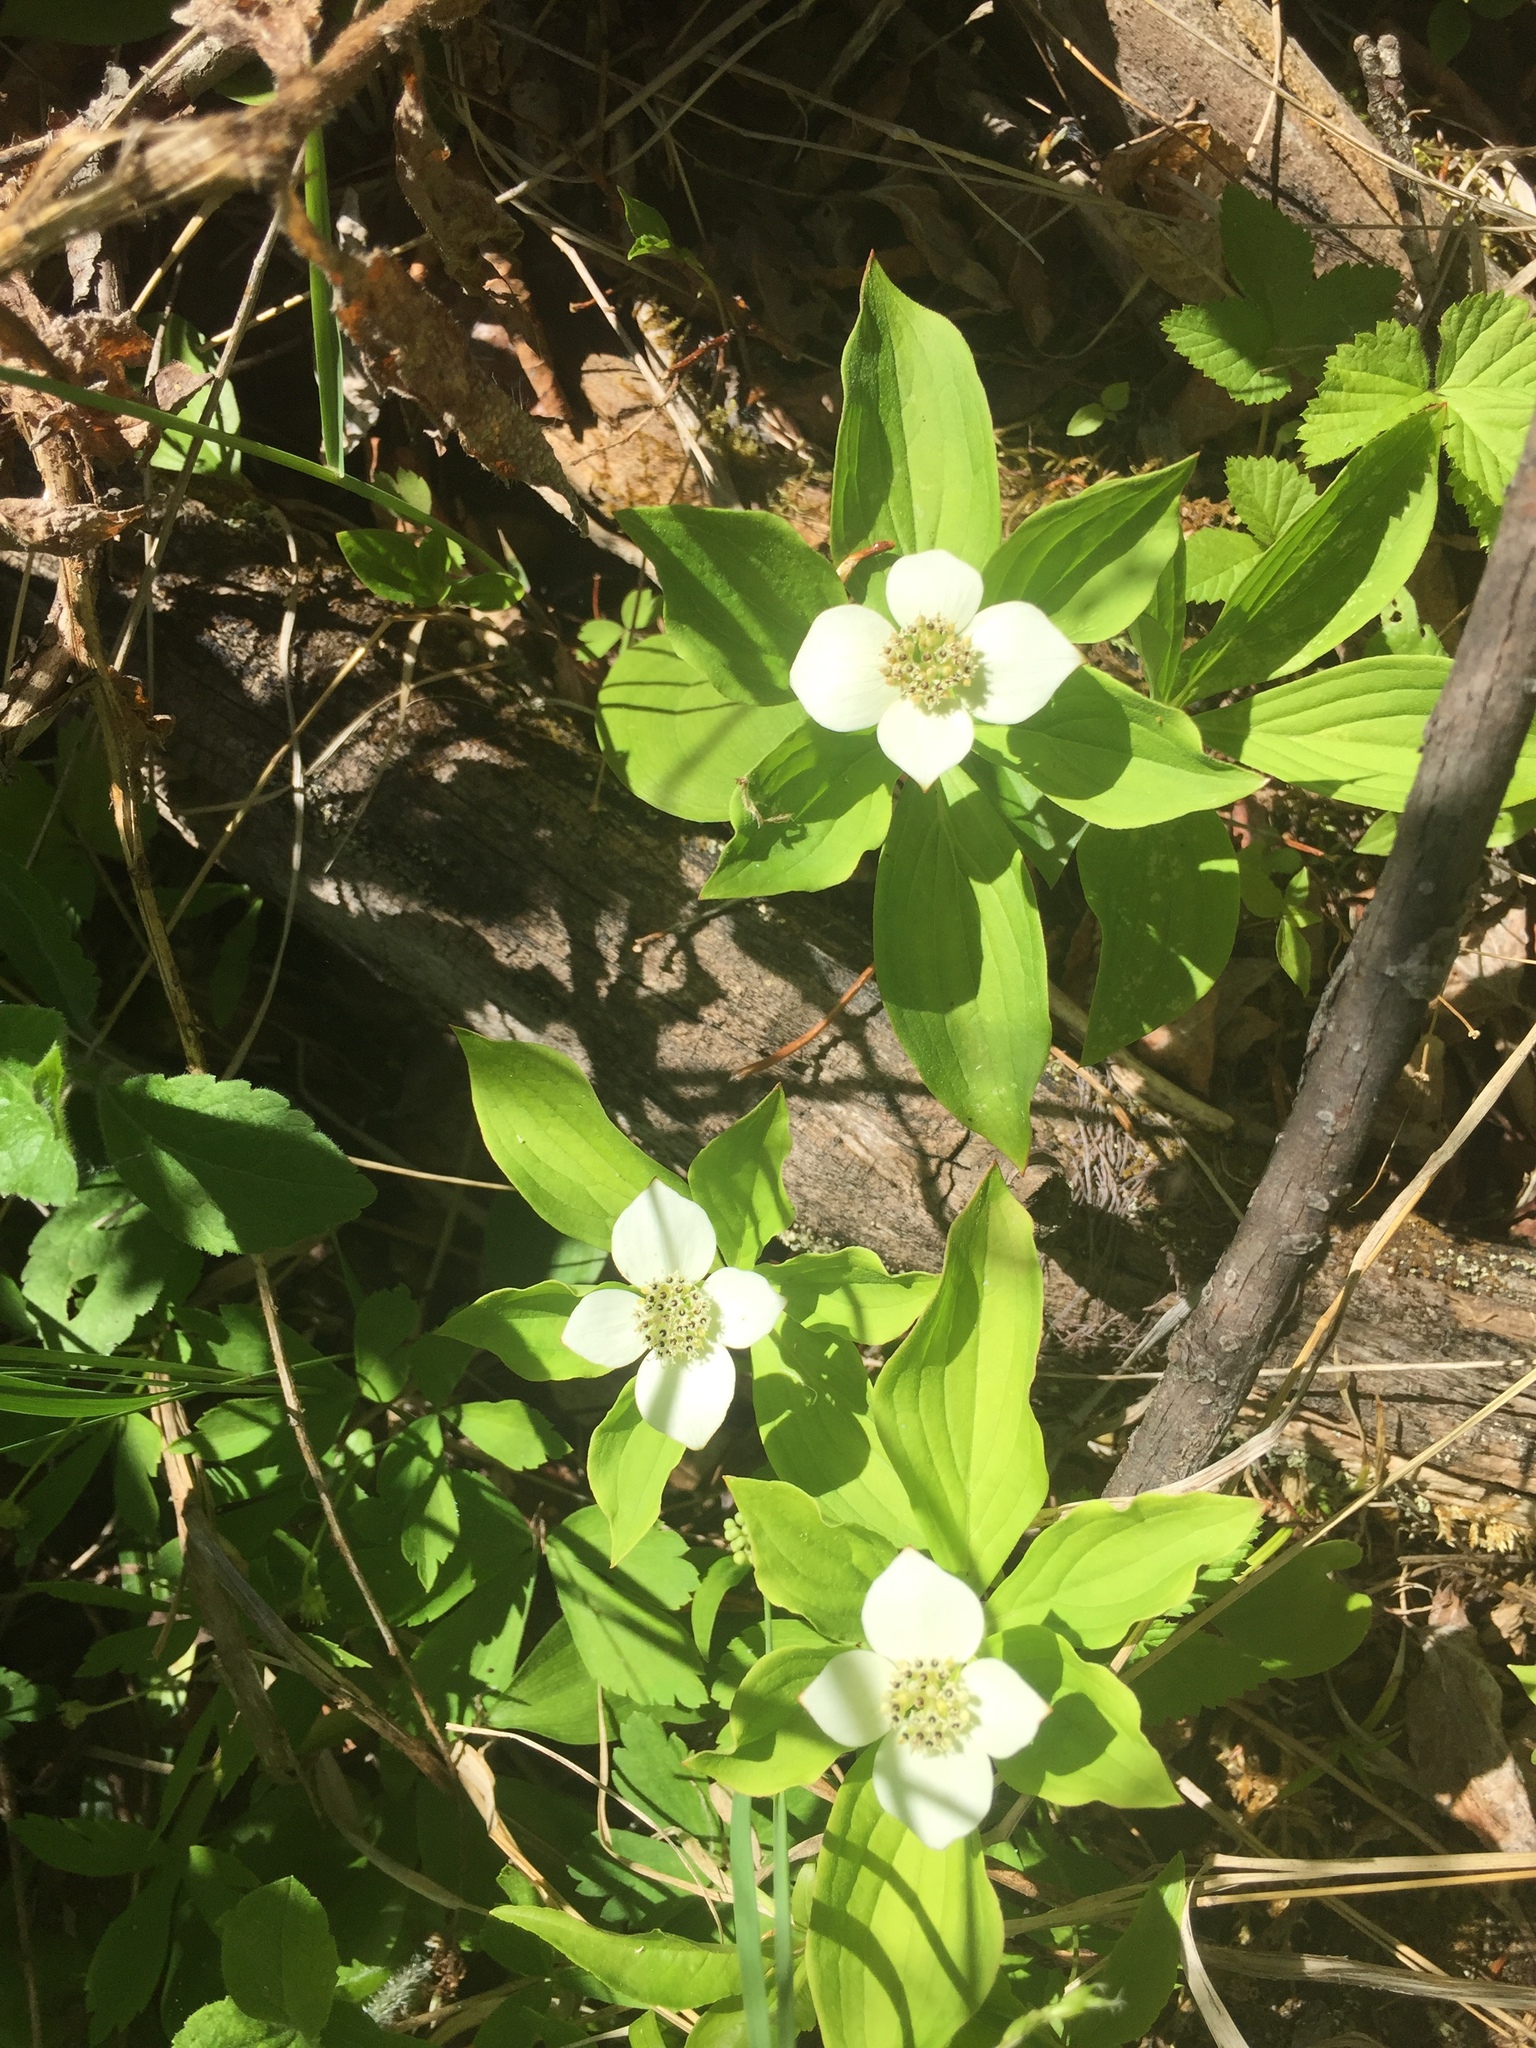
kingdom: Plantae
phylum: Tracheophyta
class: Magnoliopsida
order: Cornales
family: Cornaceae
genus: Cornus
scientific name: Cornus canadensis
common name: Creeping dogwood
